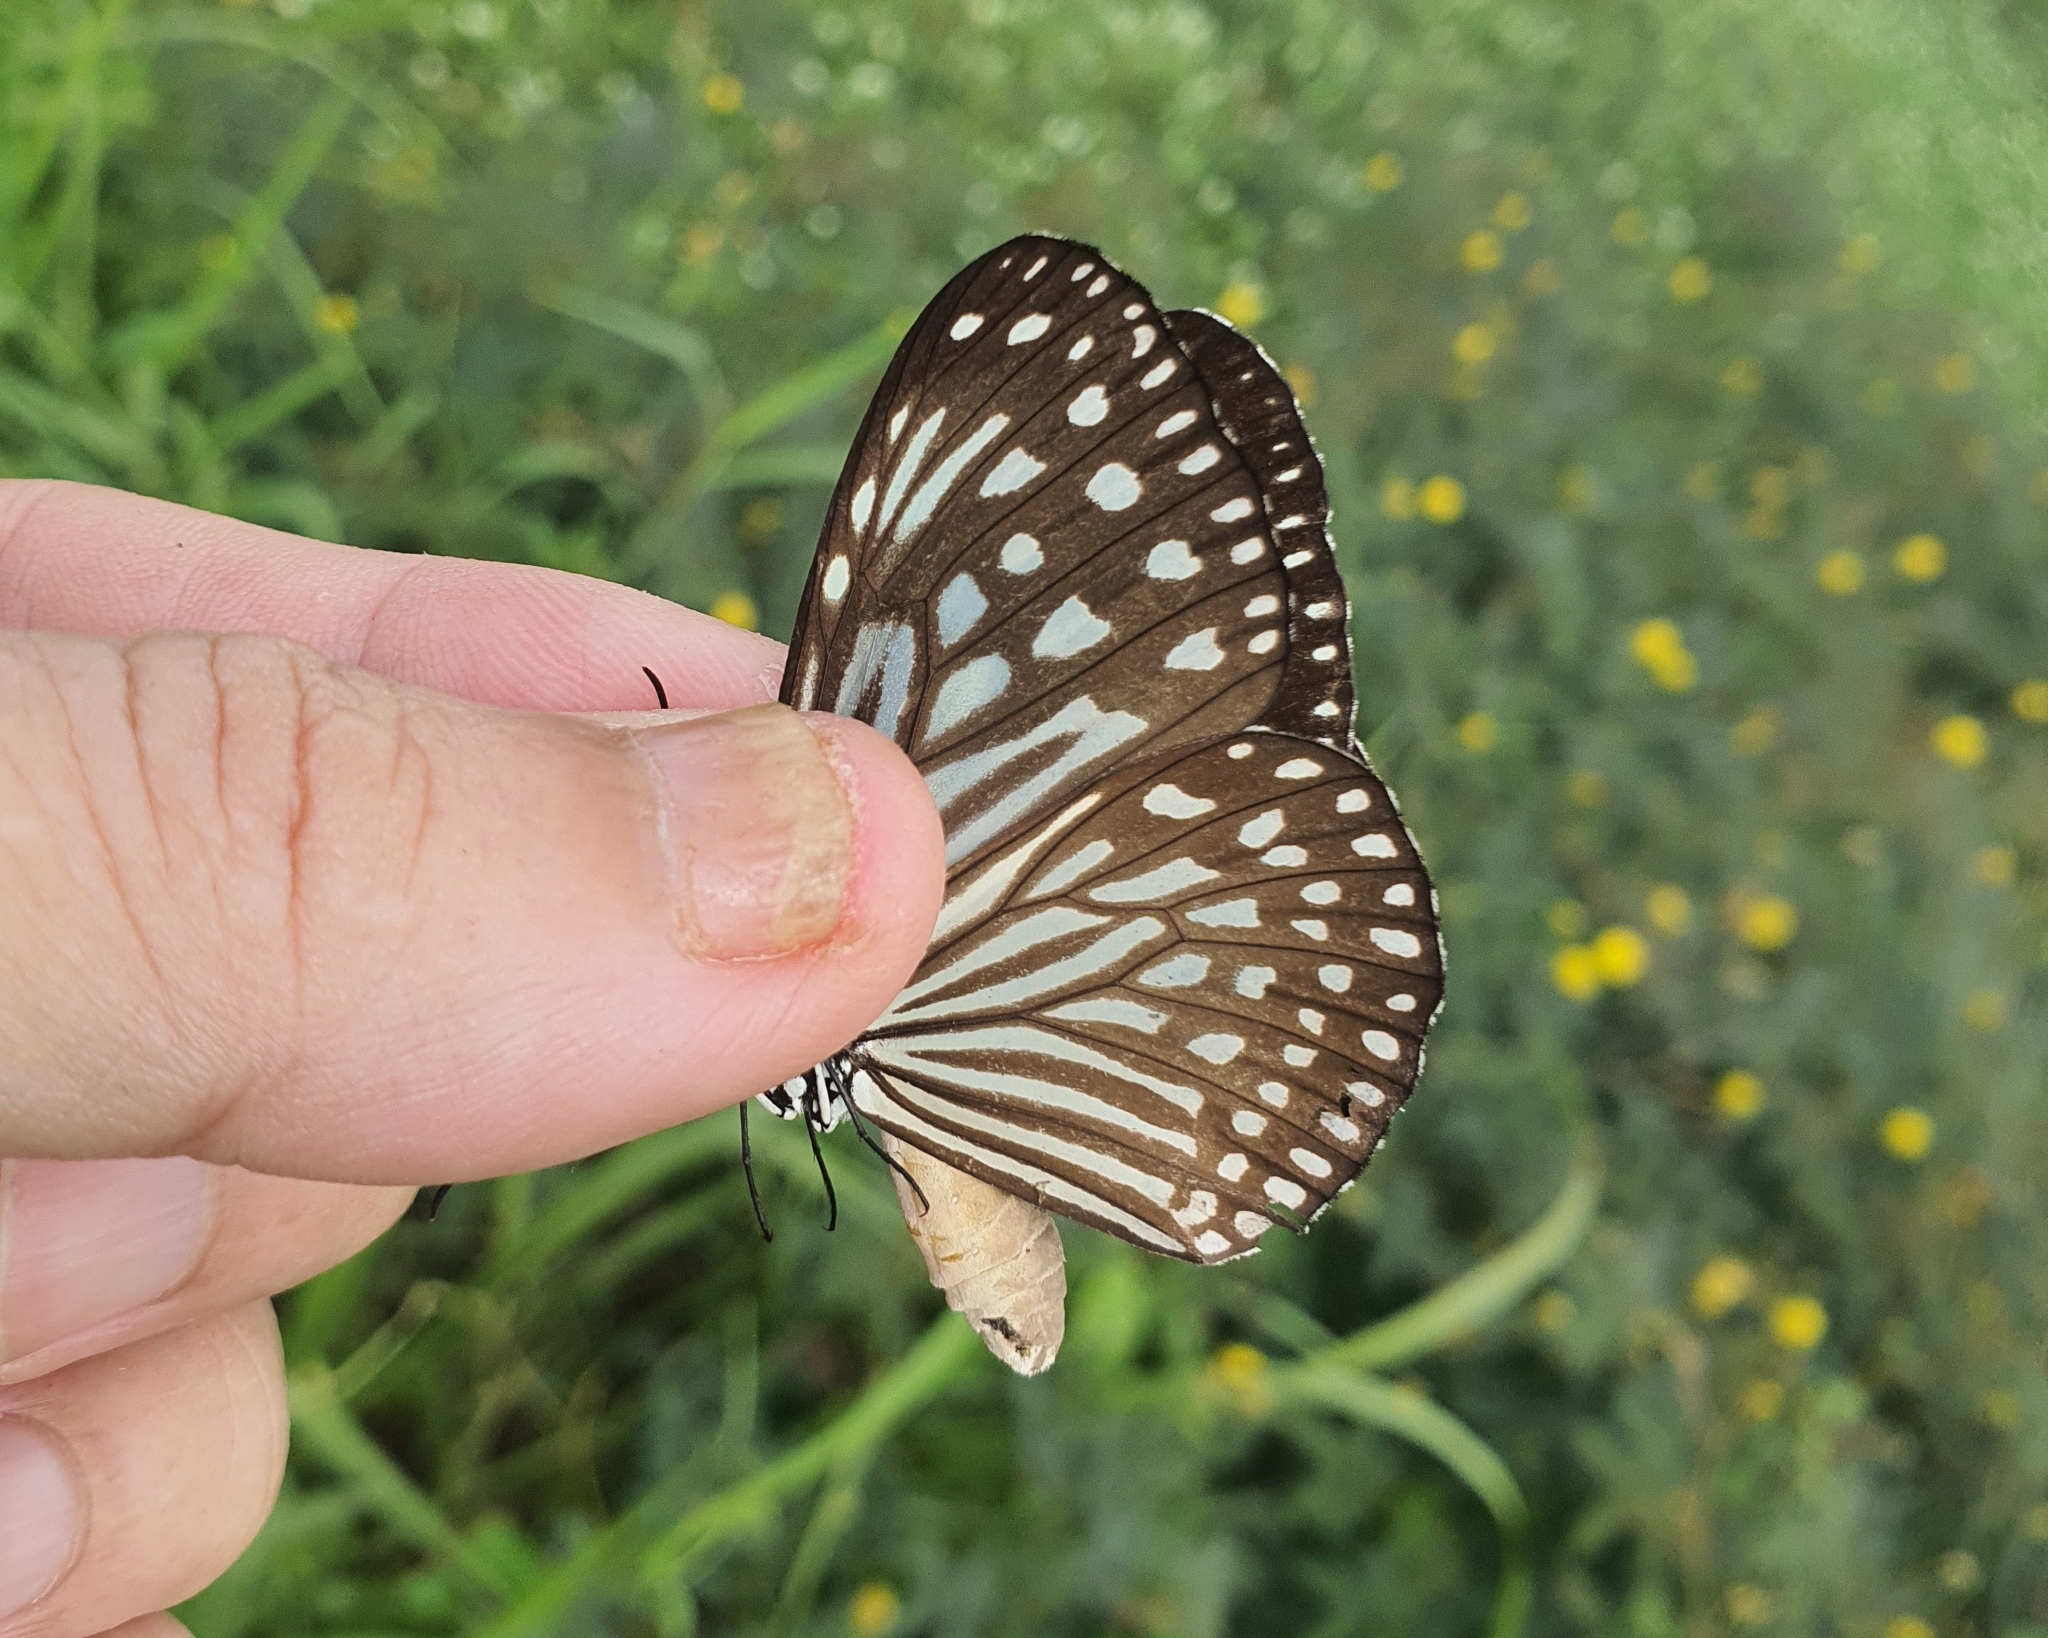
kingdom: Animalia
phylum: Arthropoda
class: Insecta
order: Lepidoptera
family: Nymphalidae
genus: Parantica
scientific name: Parantica agleoides
